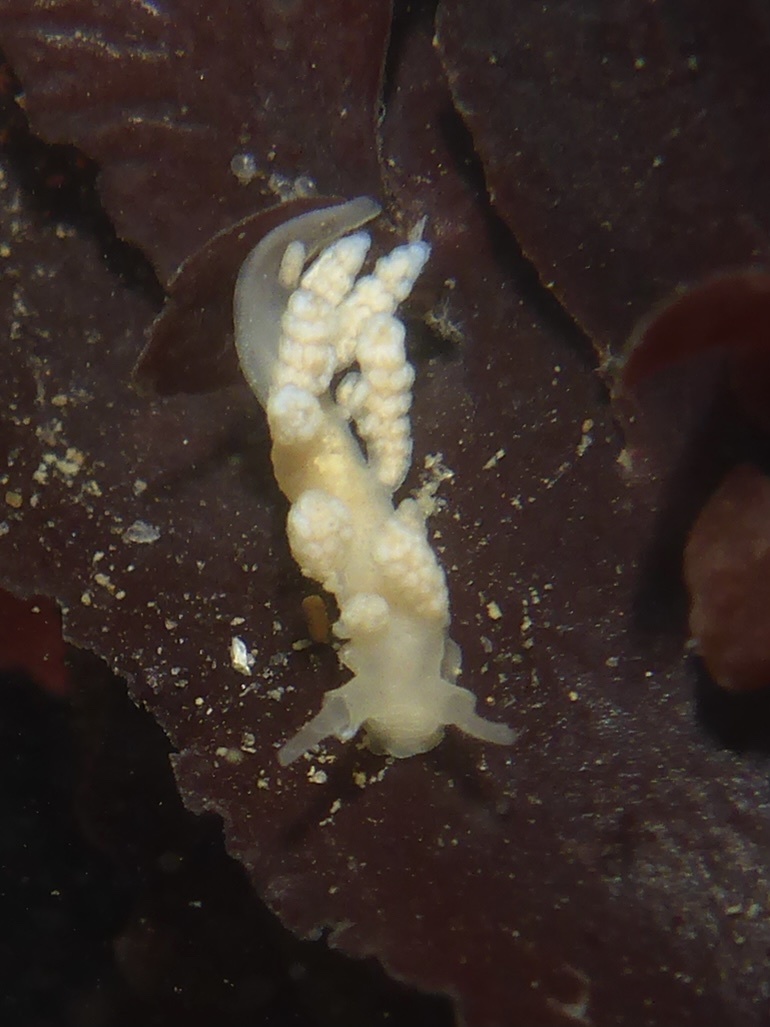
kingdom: Animalia
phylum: Mollusca
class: Gastropoda
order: Nudibranchia
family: Dotidae
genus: Doto
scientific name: Doto amyra
